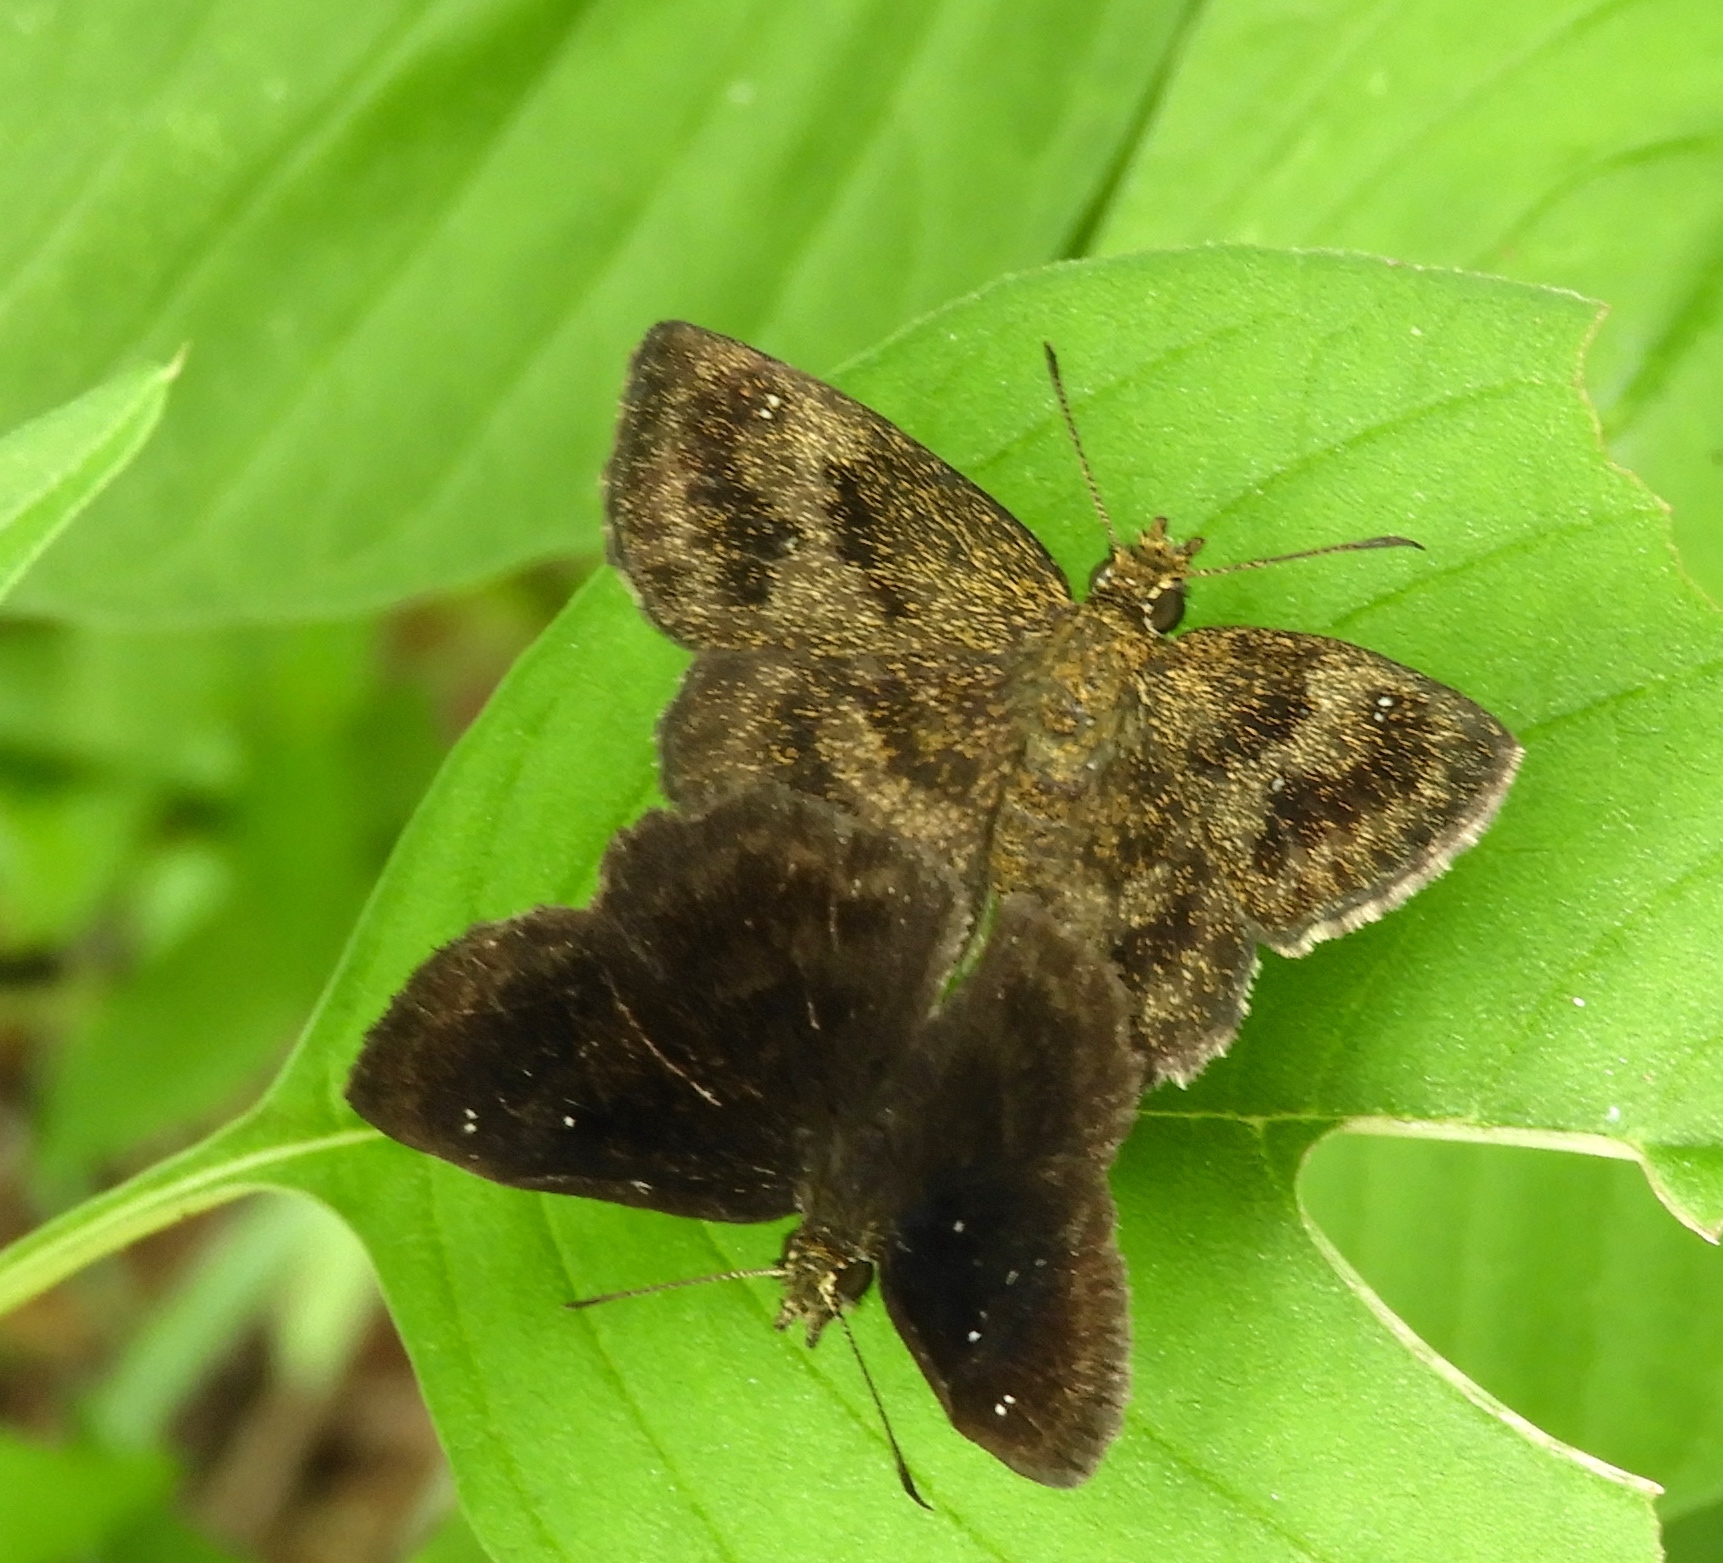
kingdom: Animalia
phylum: Arthropoda
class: Insecta
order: Lepidoptera
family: Hesperiidae
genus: Staphylus
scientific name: Staphylus mazans
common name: Mazans scallopwing
